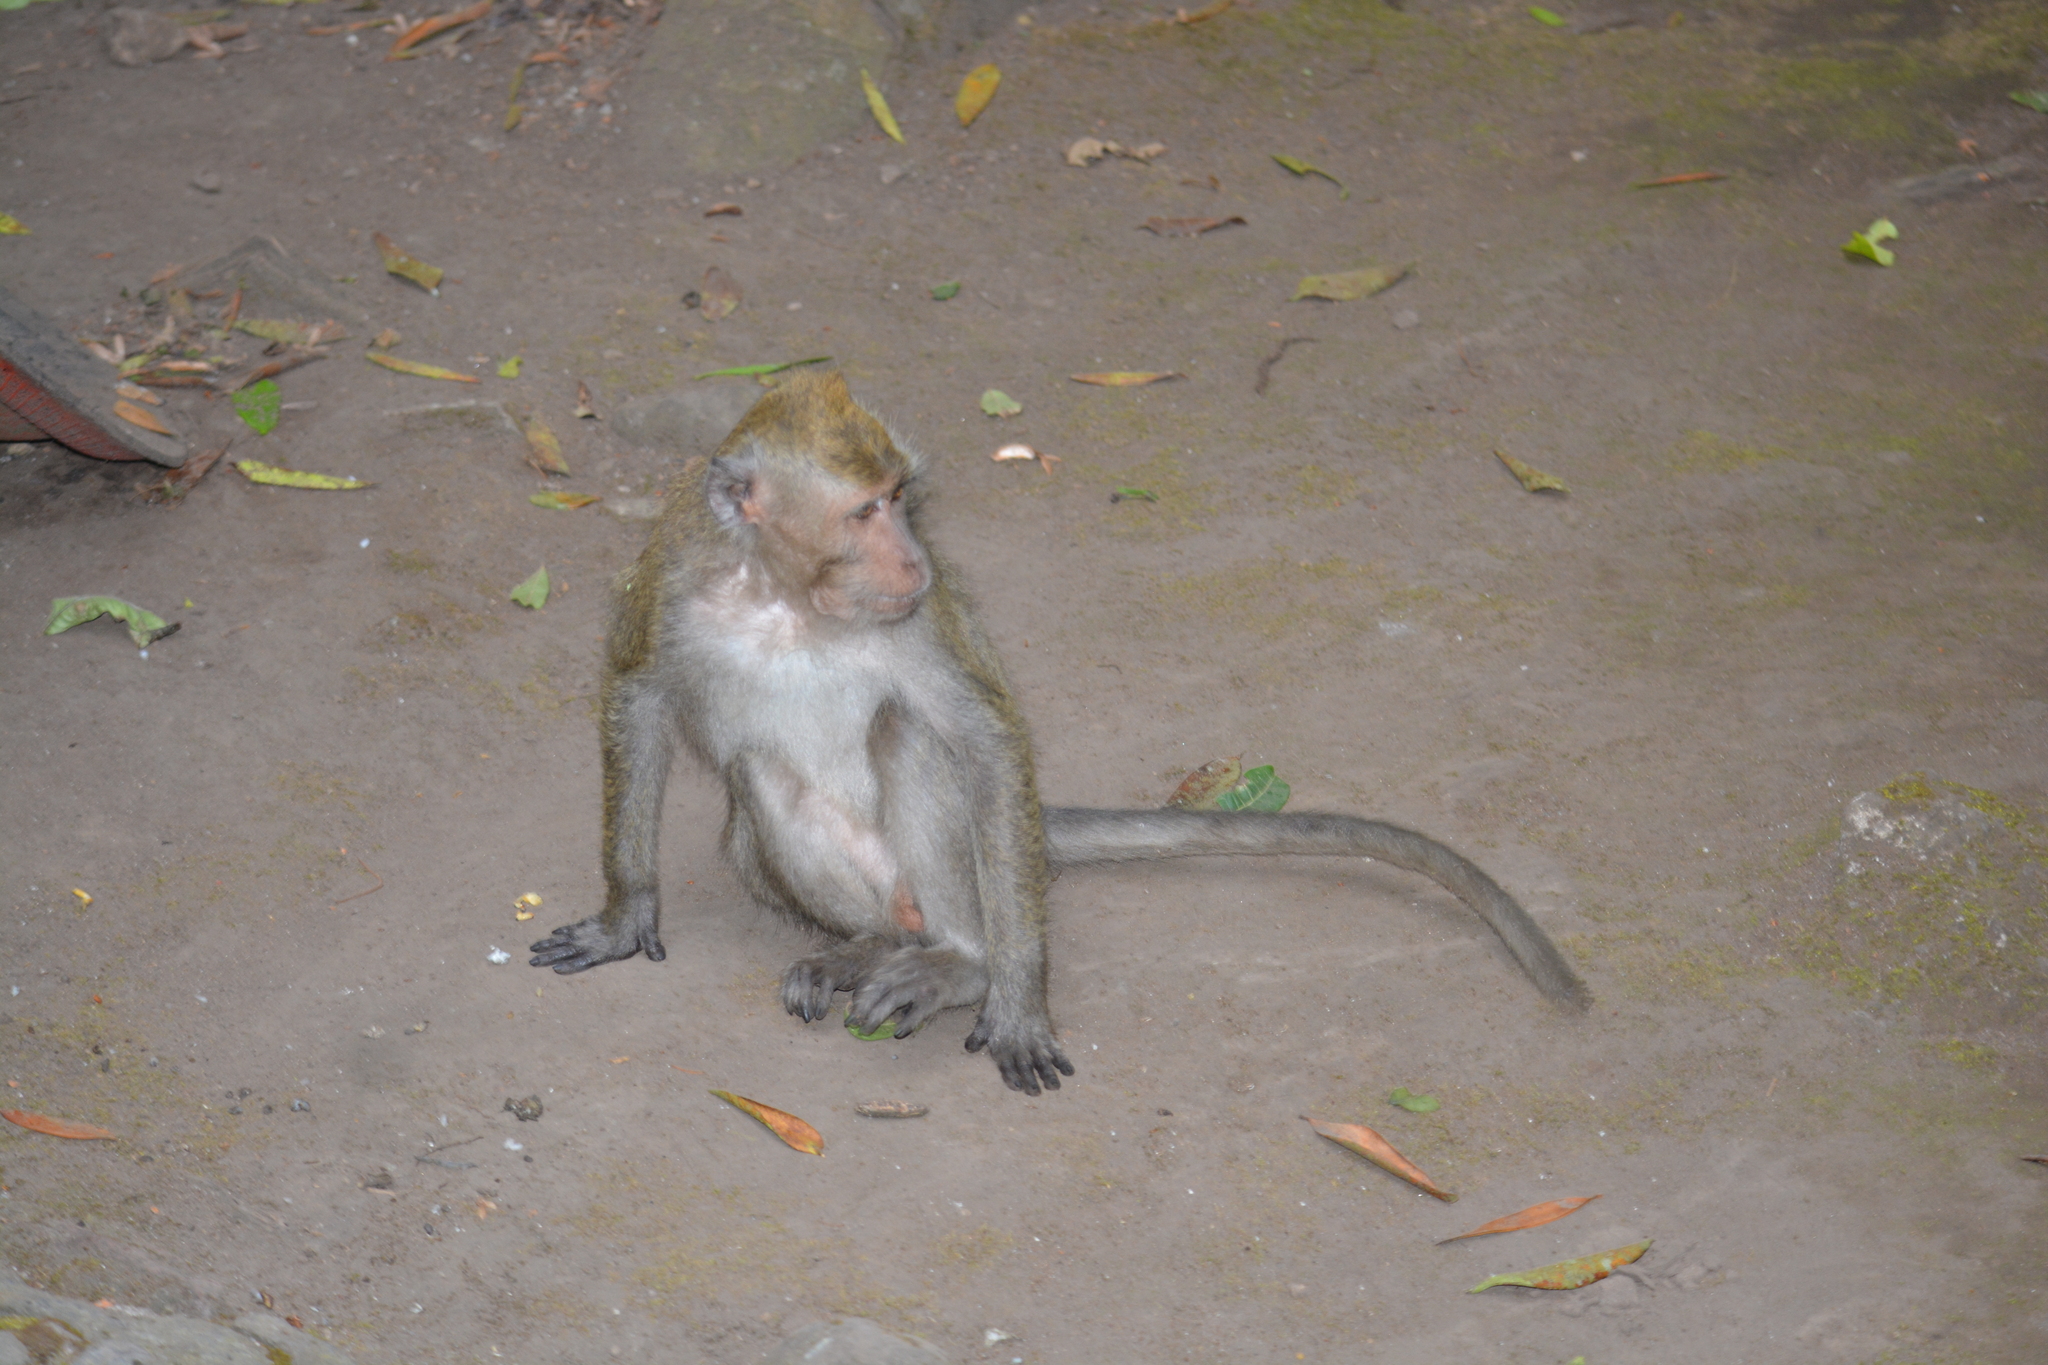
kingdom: Animalia
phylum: Chordata
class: Mammalia
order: Primates
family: Cercopithecidae
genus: Macaca
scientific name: Macaca fascicularis
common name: Crab-eating macaque
